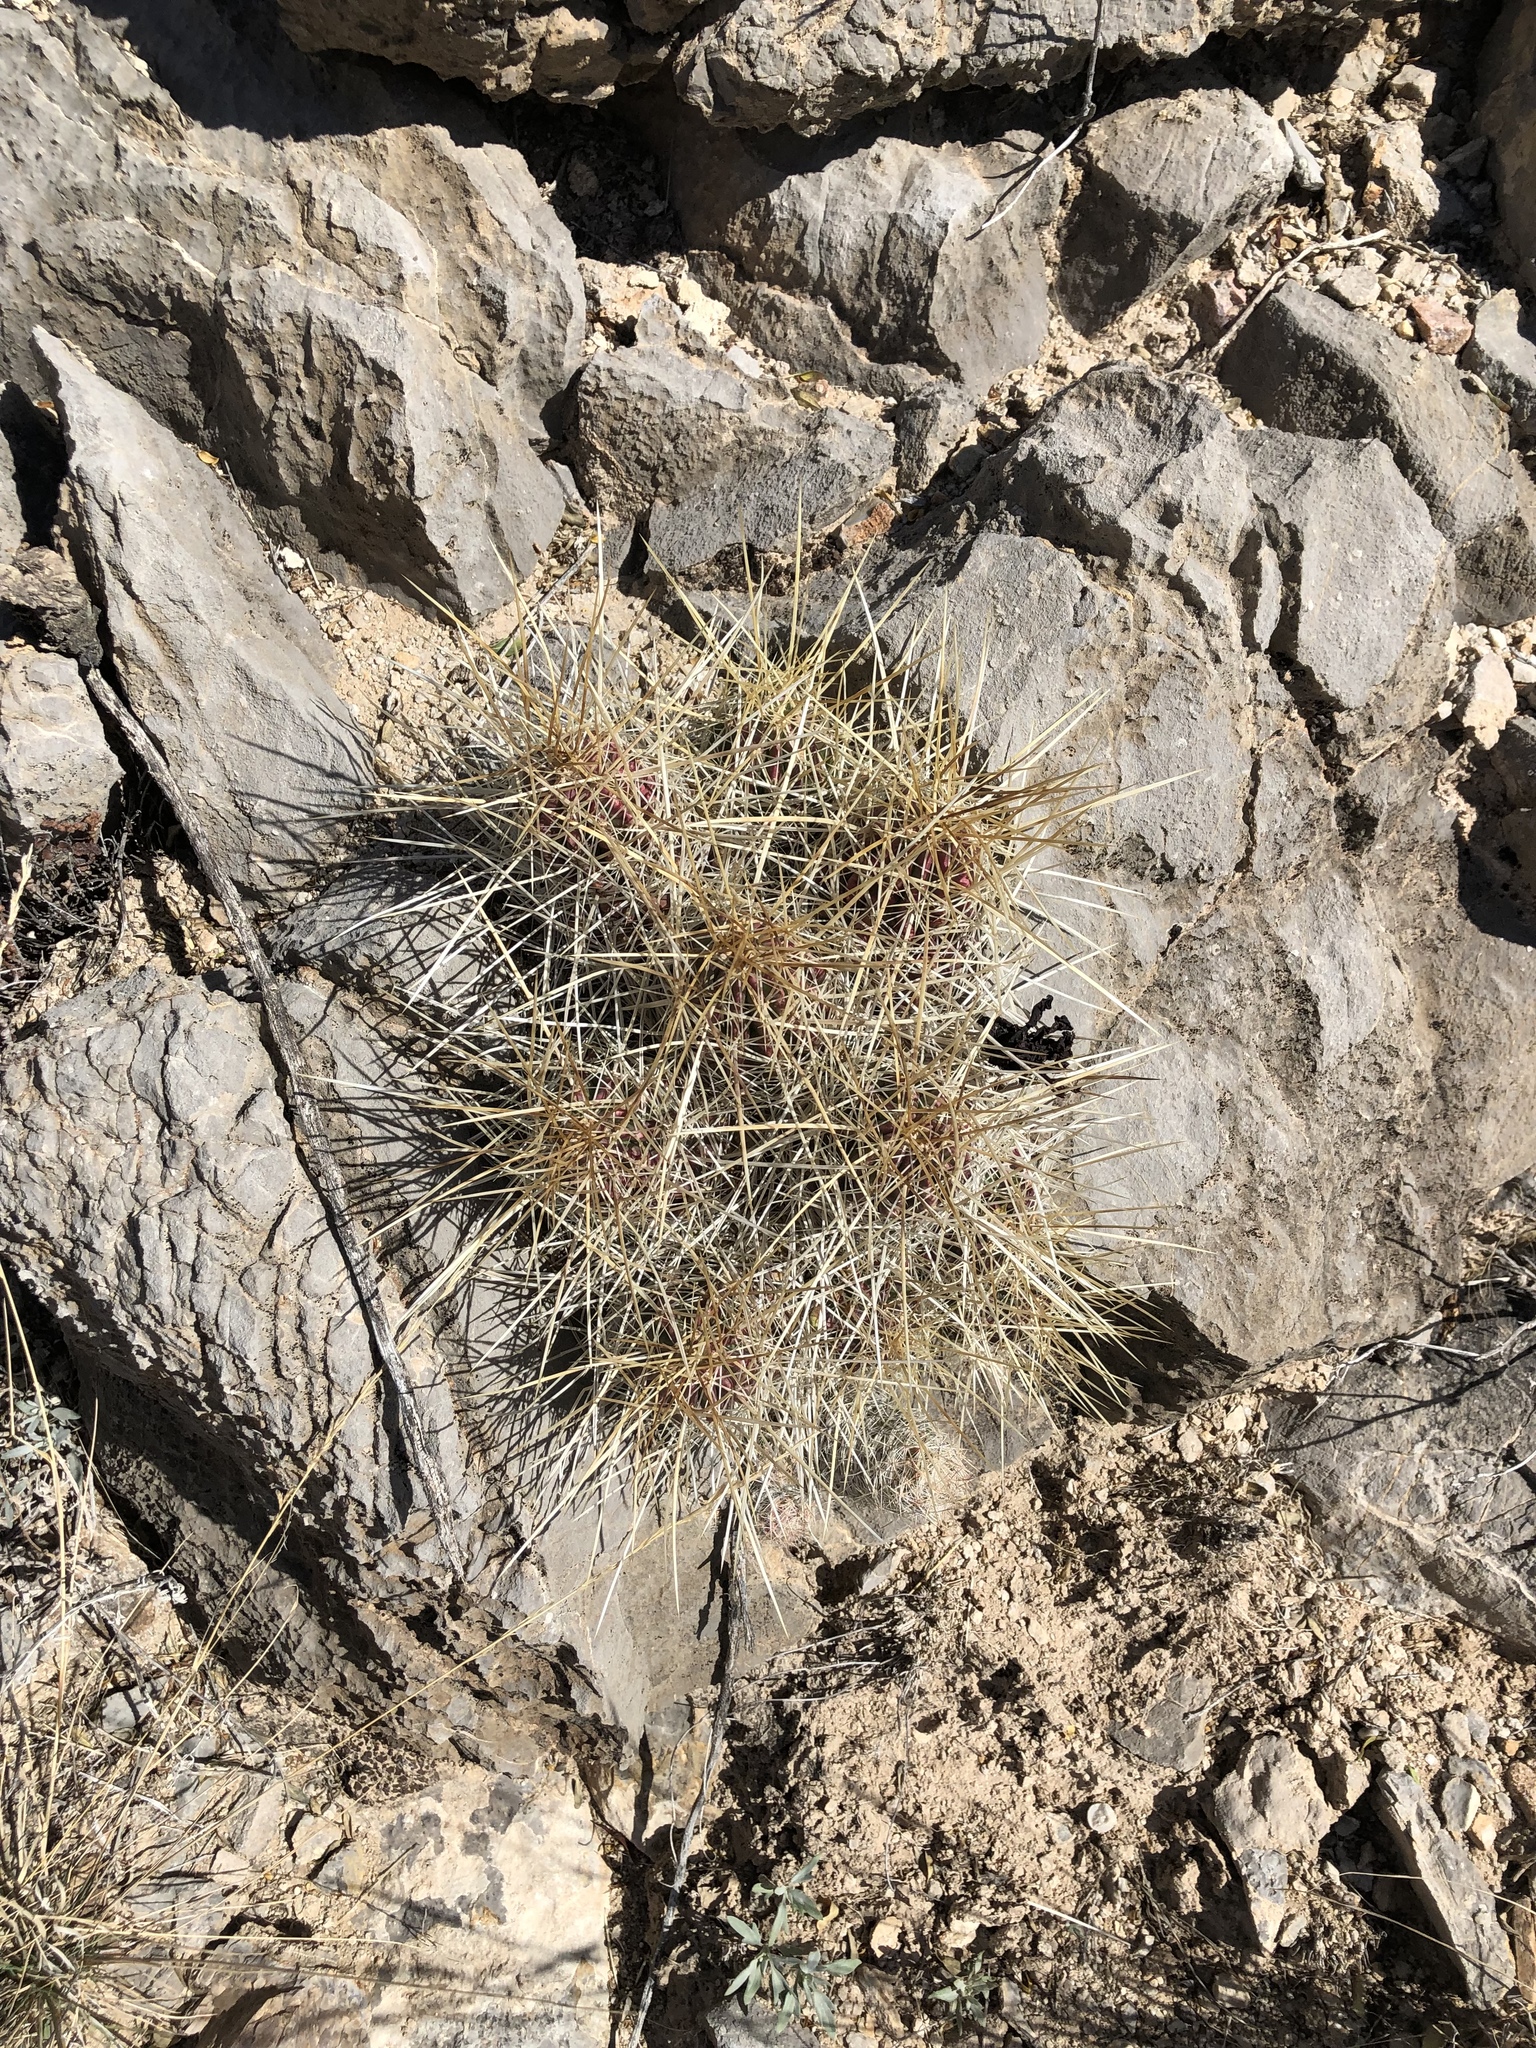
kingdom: Plantae
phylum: Tracheophyta
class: Magnoliopsida
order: Caryophyllales
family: Cactaceae
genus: Echinocereus
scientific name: Echinocereus stramineus
